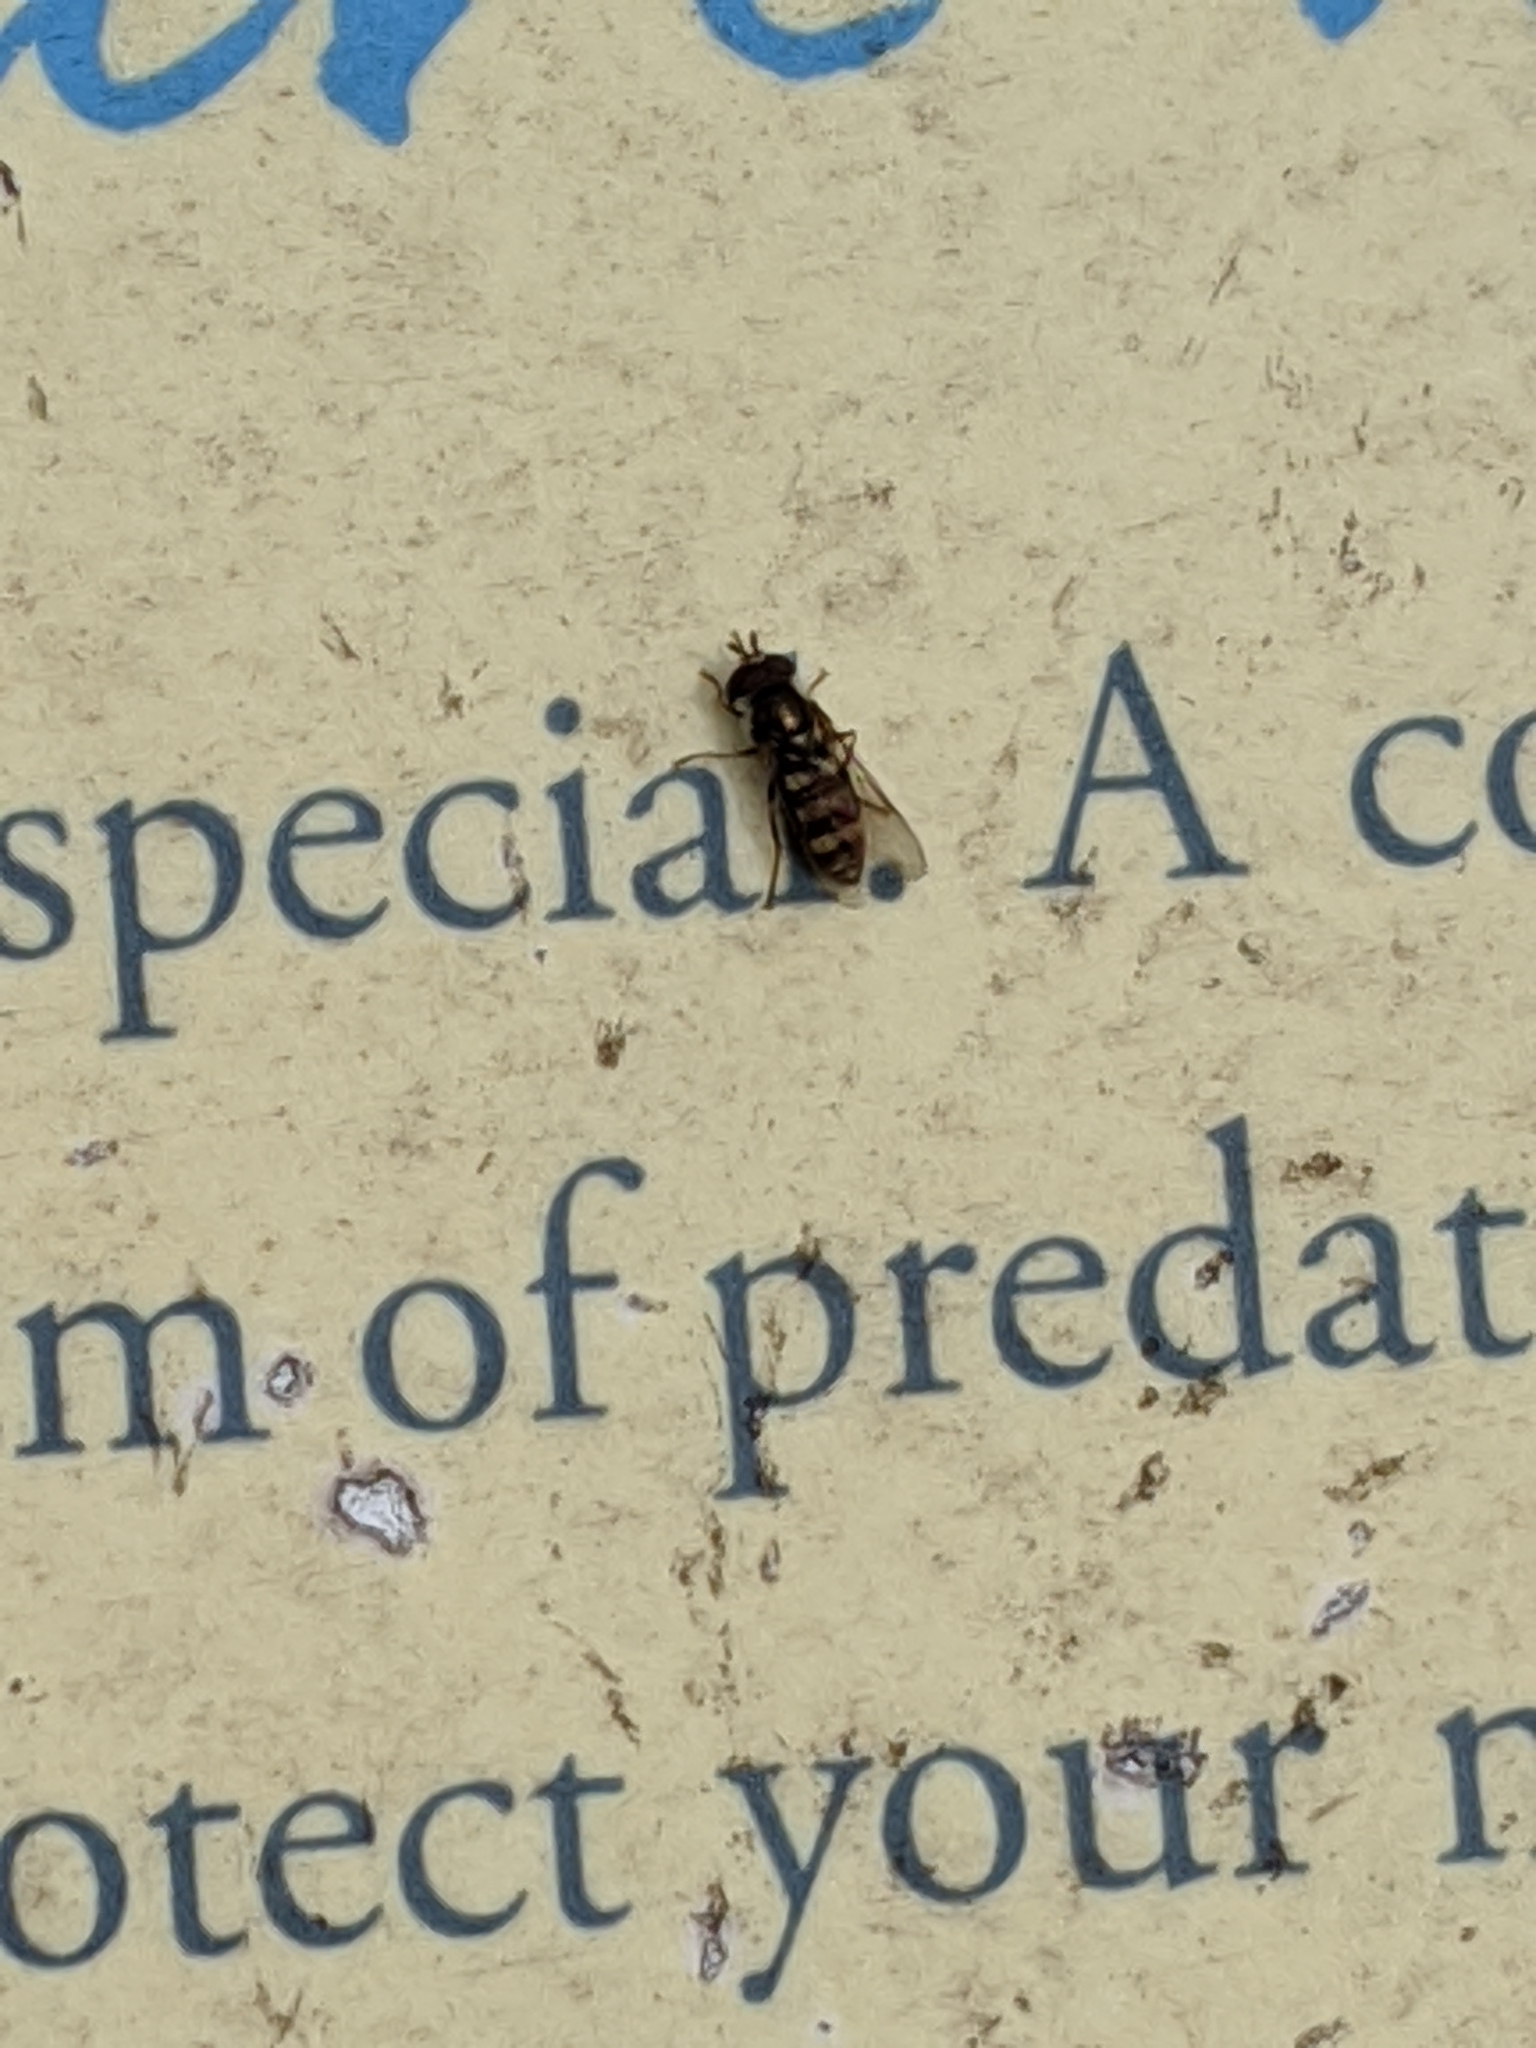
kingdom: Animalia
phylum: Arthropoda
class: Insecta
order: Diptera
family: Syrphidae
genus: Eupeodes
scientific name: Eupeodes
